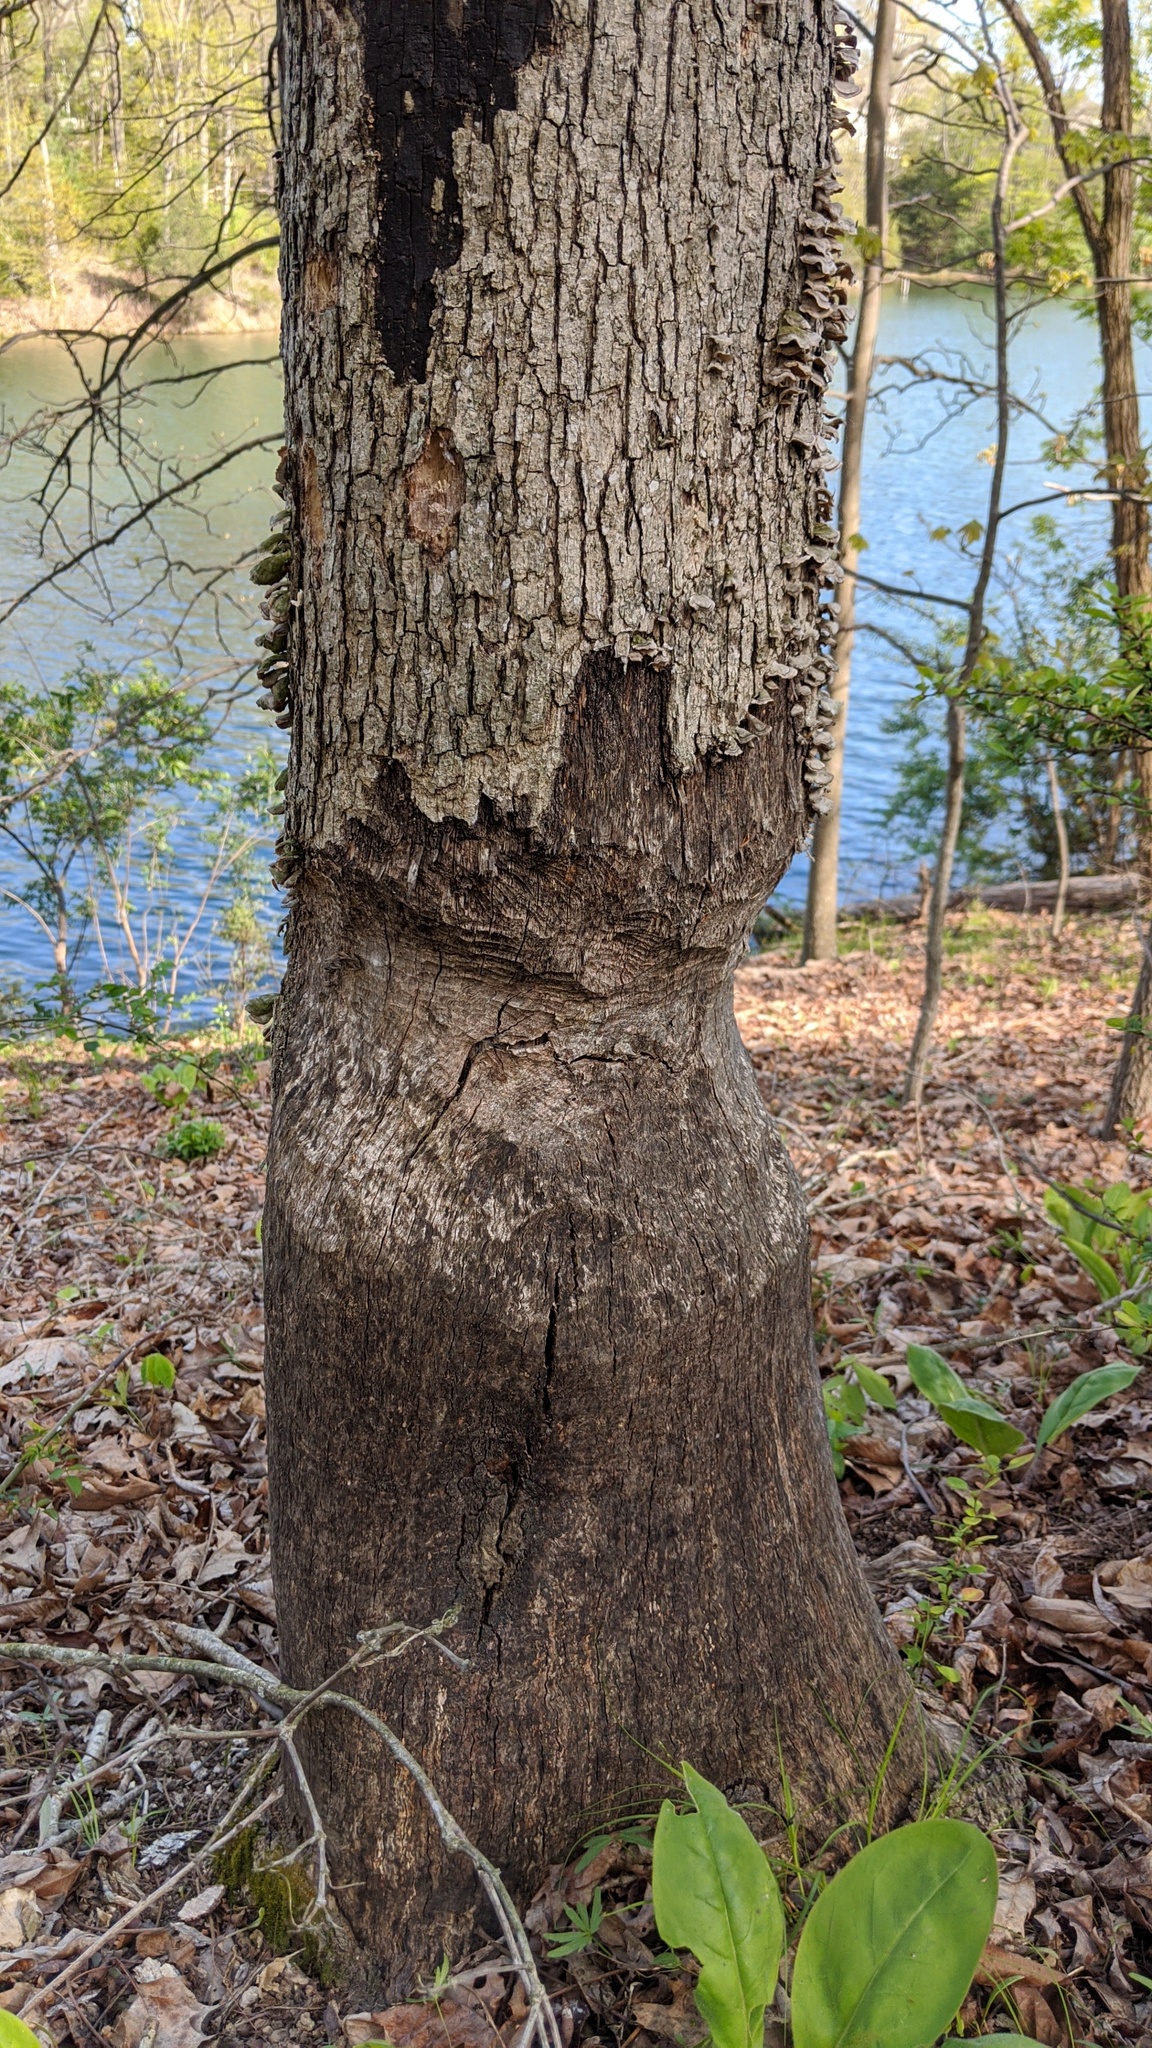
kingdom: Animalia
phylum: Chordata
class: Mammalia
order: Rodentia
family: Castoridae
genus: Castor
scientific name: Castor canadensis
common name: American beaver
